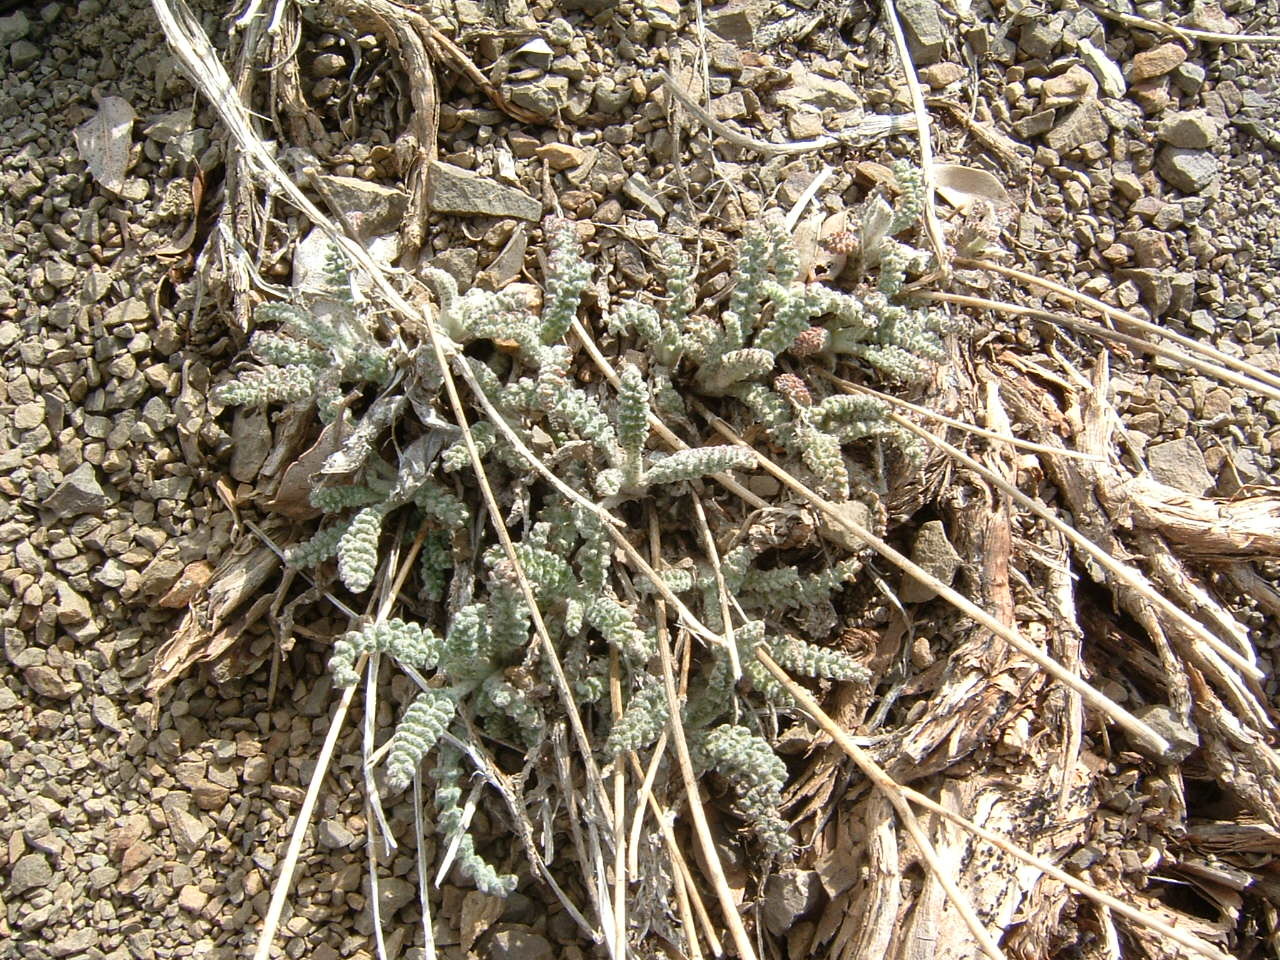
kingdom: Plantae
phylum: Tracheophyta
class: Magnoliopsida
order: Asterales
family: Asteraceae
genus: Chaenactis
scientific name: Chaenactis santolinoides
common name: Santolina pincushion
